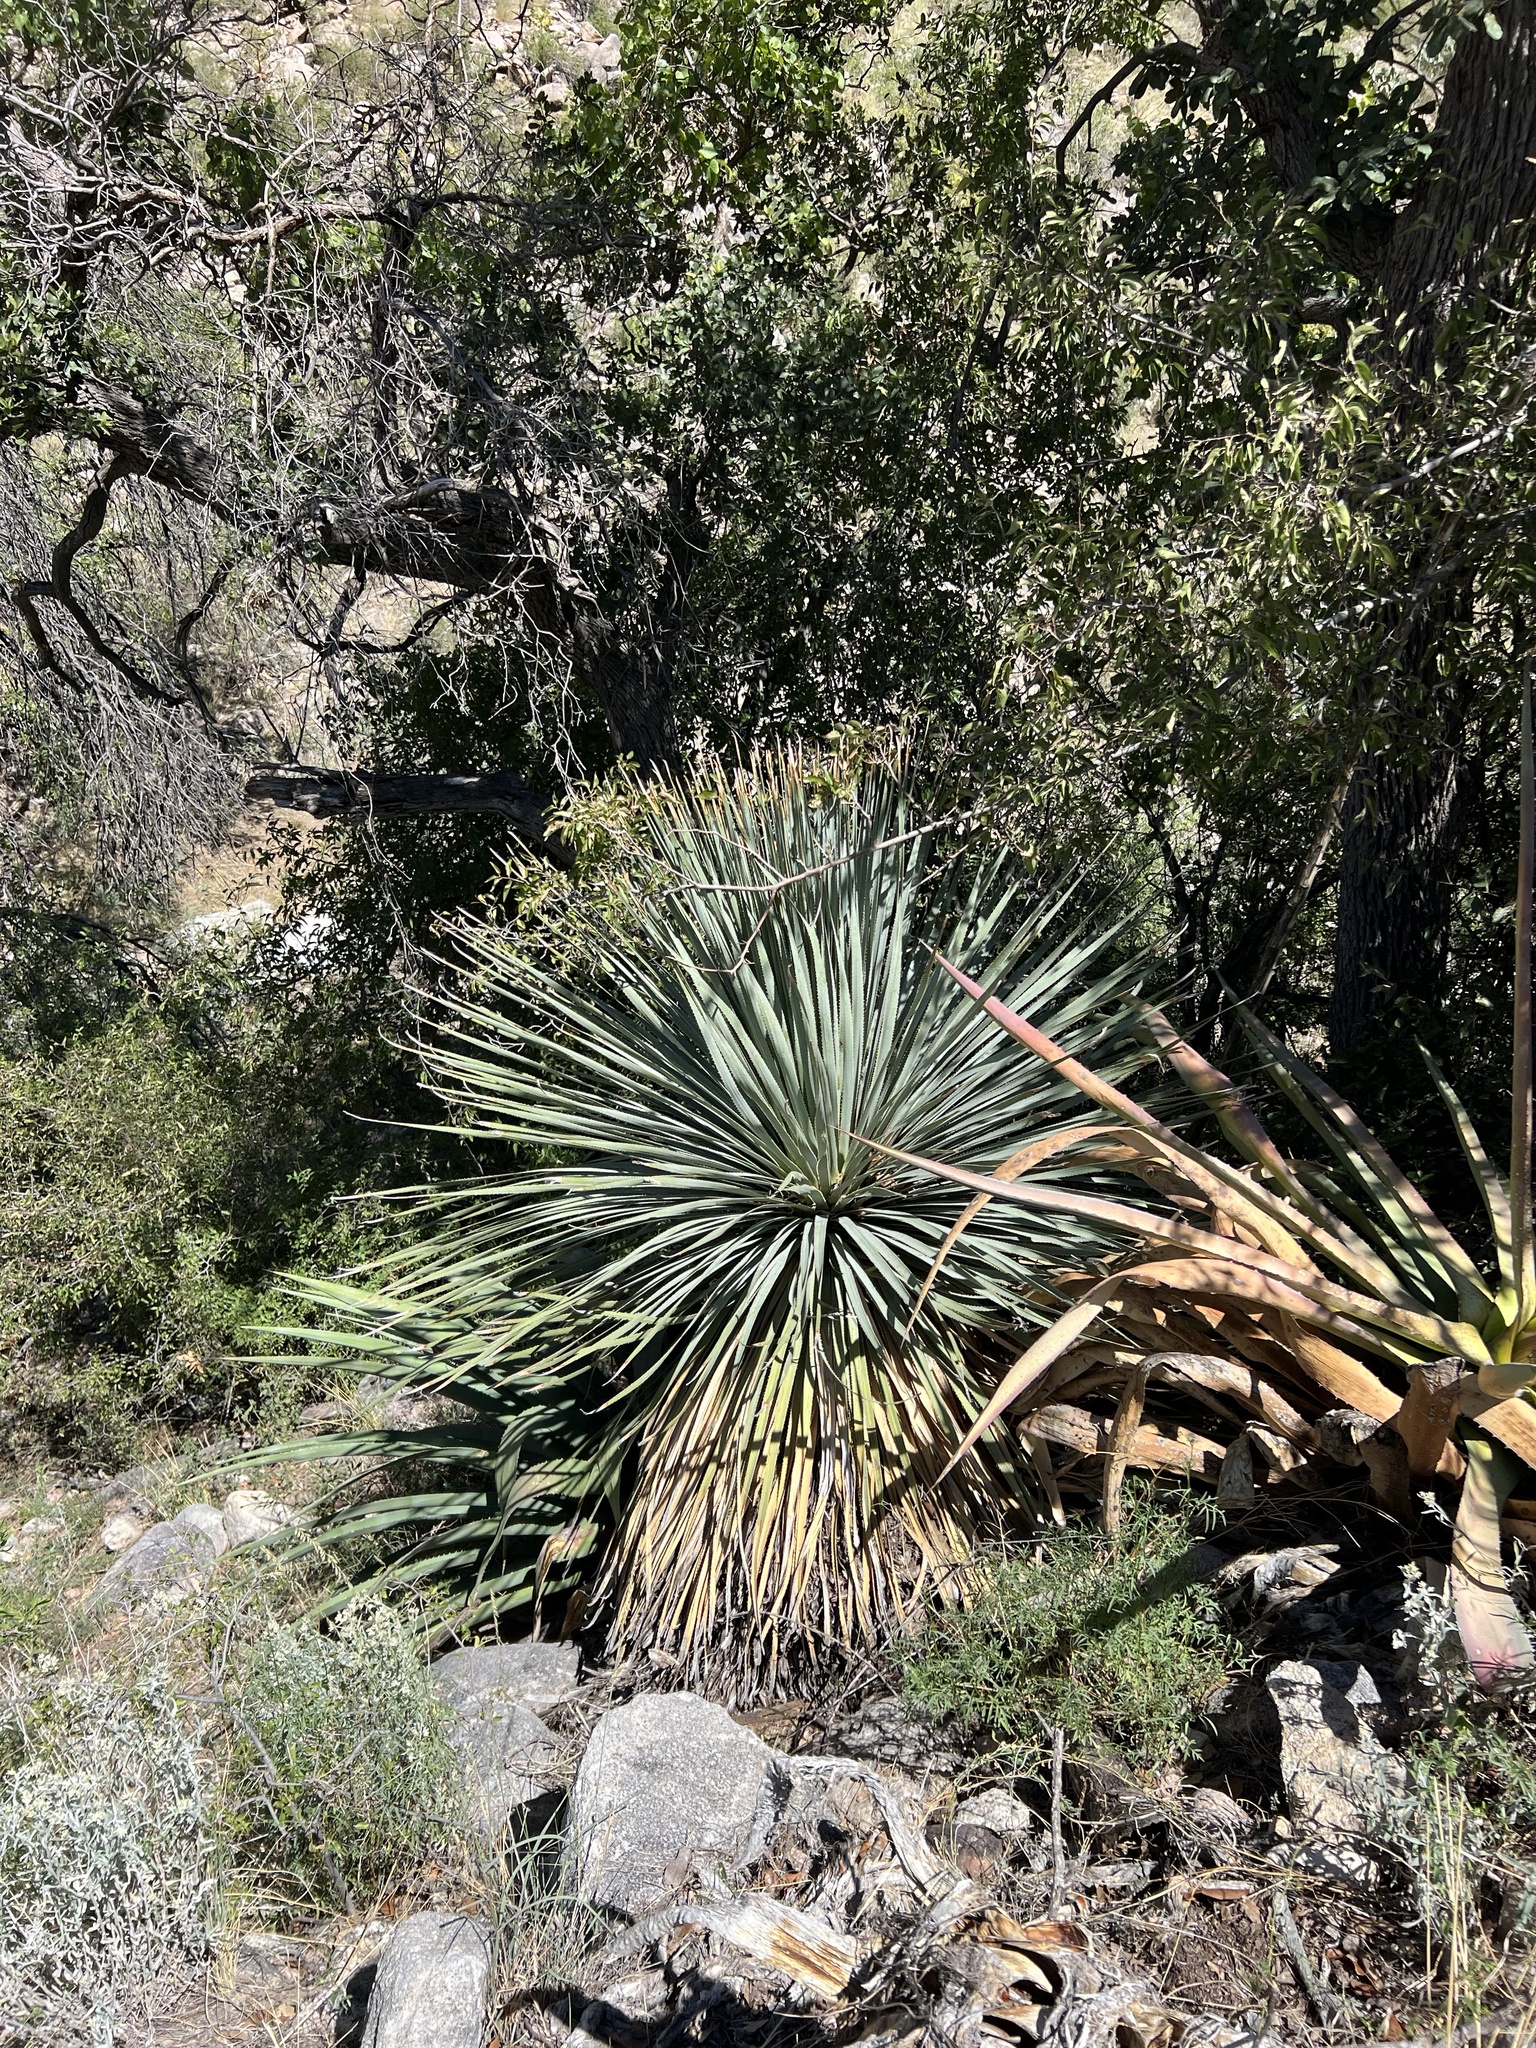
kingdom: Plantae
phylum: Tracheophyta
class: Liliopsida
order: Asparagales
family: Asparagaceae
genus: Dasylirion
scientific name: Dasylirion wheeleri
